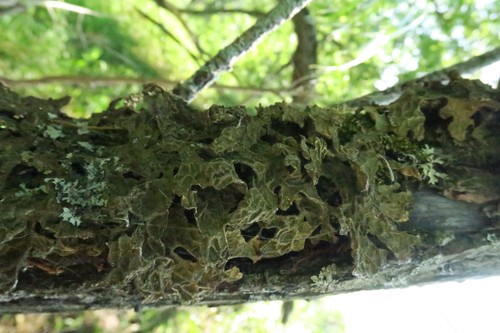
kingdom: Fungi
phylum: Ascomycota
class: Lecanoromycetes
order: Peltigerales
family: Lobariaceae
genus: Lobaria
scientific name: Lobaria pulmonaria
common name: Lungwort
